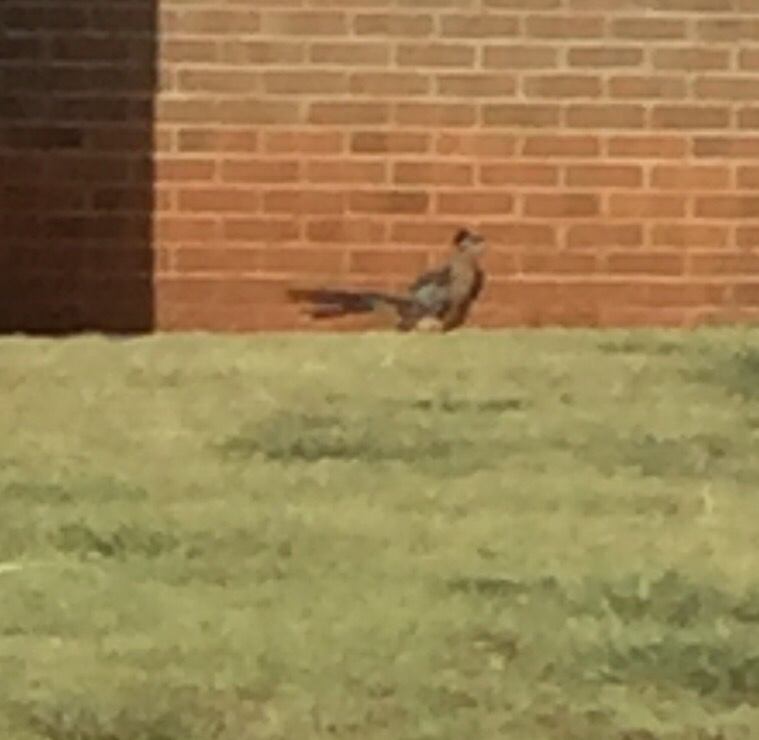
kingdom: Animalia
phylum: Chordata
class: Aves
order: Cuculiformes
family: Cuculidae
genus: Geococcyx
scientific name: Geococcyx californianus
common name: Greater roadrunner
